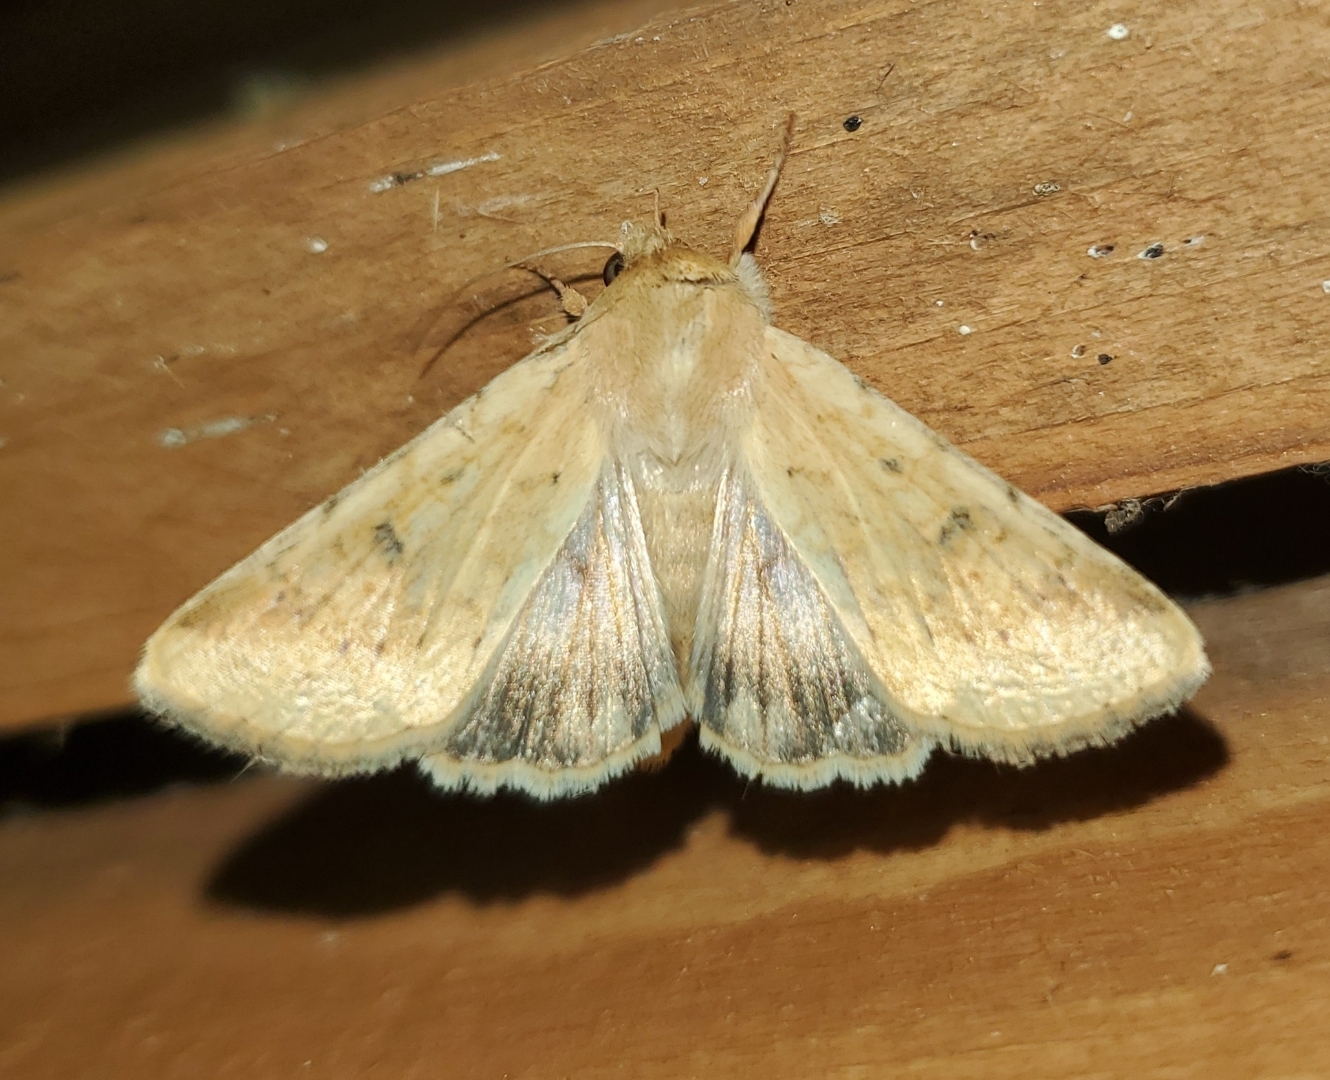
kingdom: Animalia
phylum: Arthropoda
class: Insecta
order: Lepidoptera
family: Noctuidae
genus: Helicoverpa
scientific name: Helicoverpa zea
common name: Bollworm
